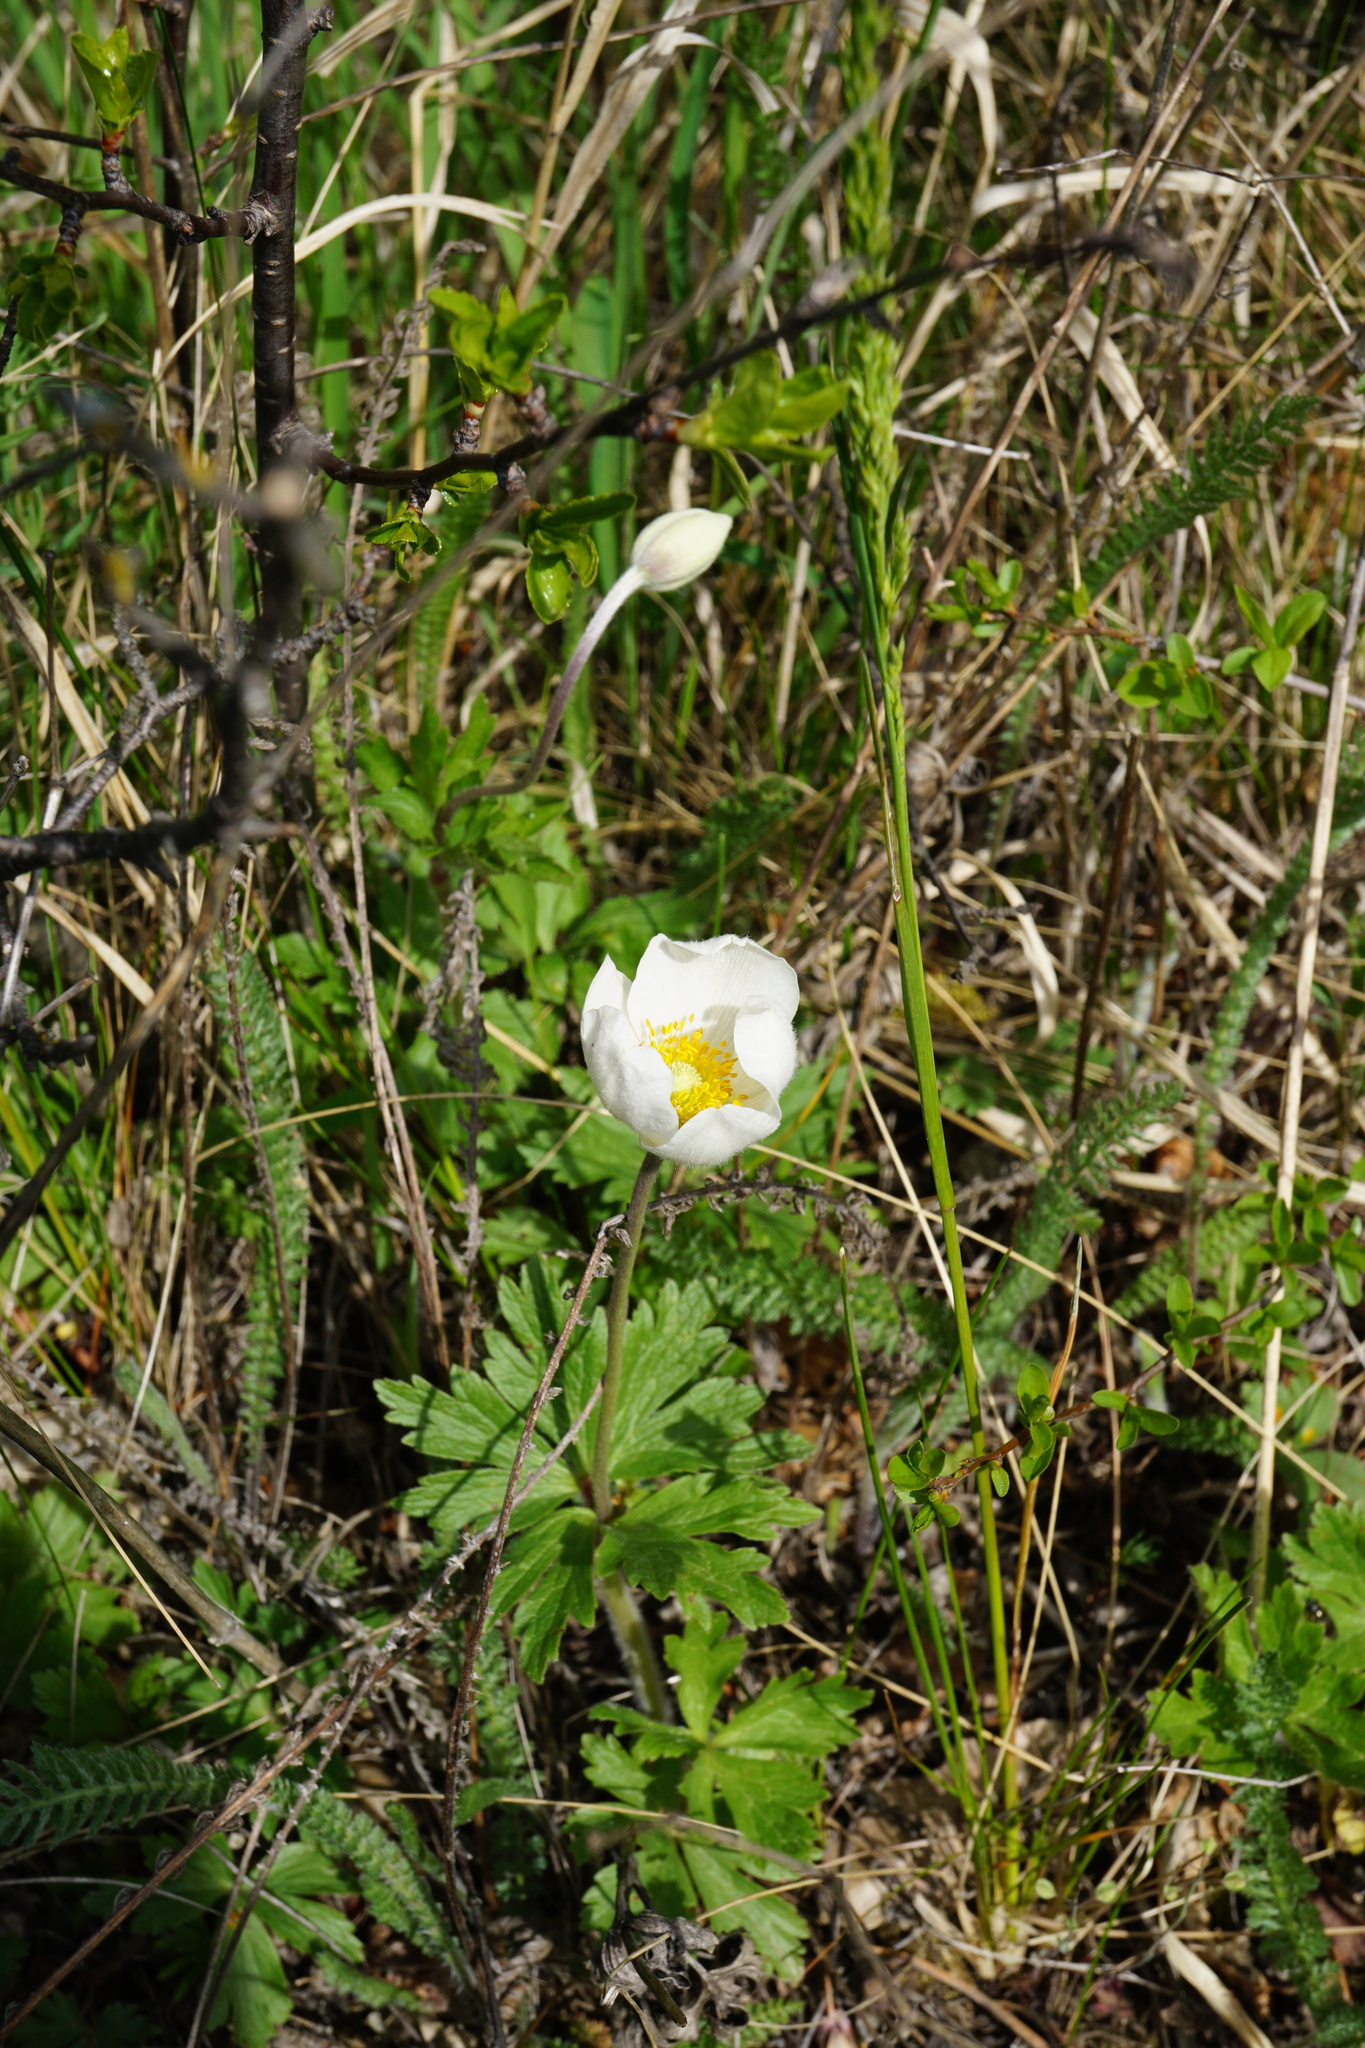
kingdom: Plantae
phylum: Tracheophyta
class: Magnoliopsida
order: Ranunculales
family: Ranunculaceae
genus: Anemone
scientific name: Anemone sylvestris
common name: Snowdrop anemone
